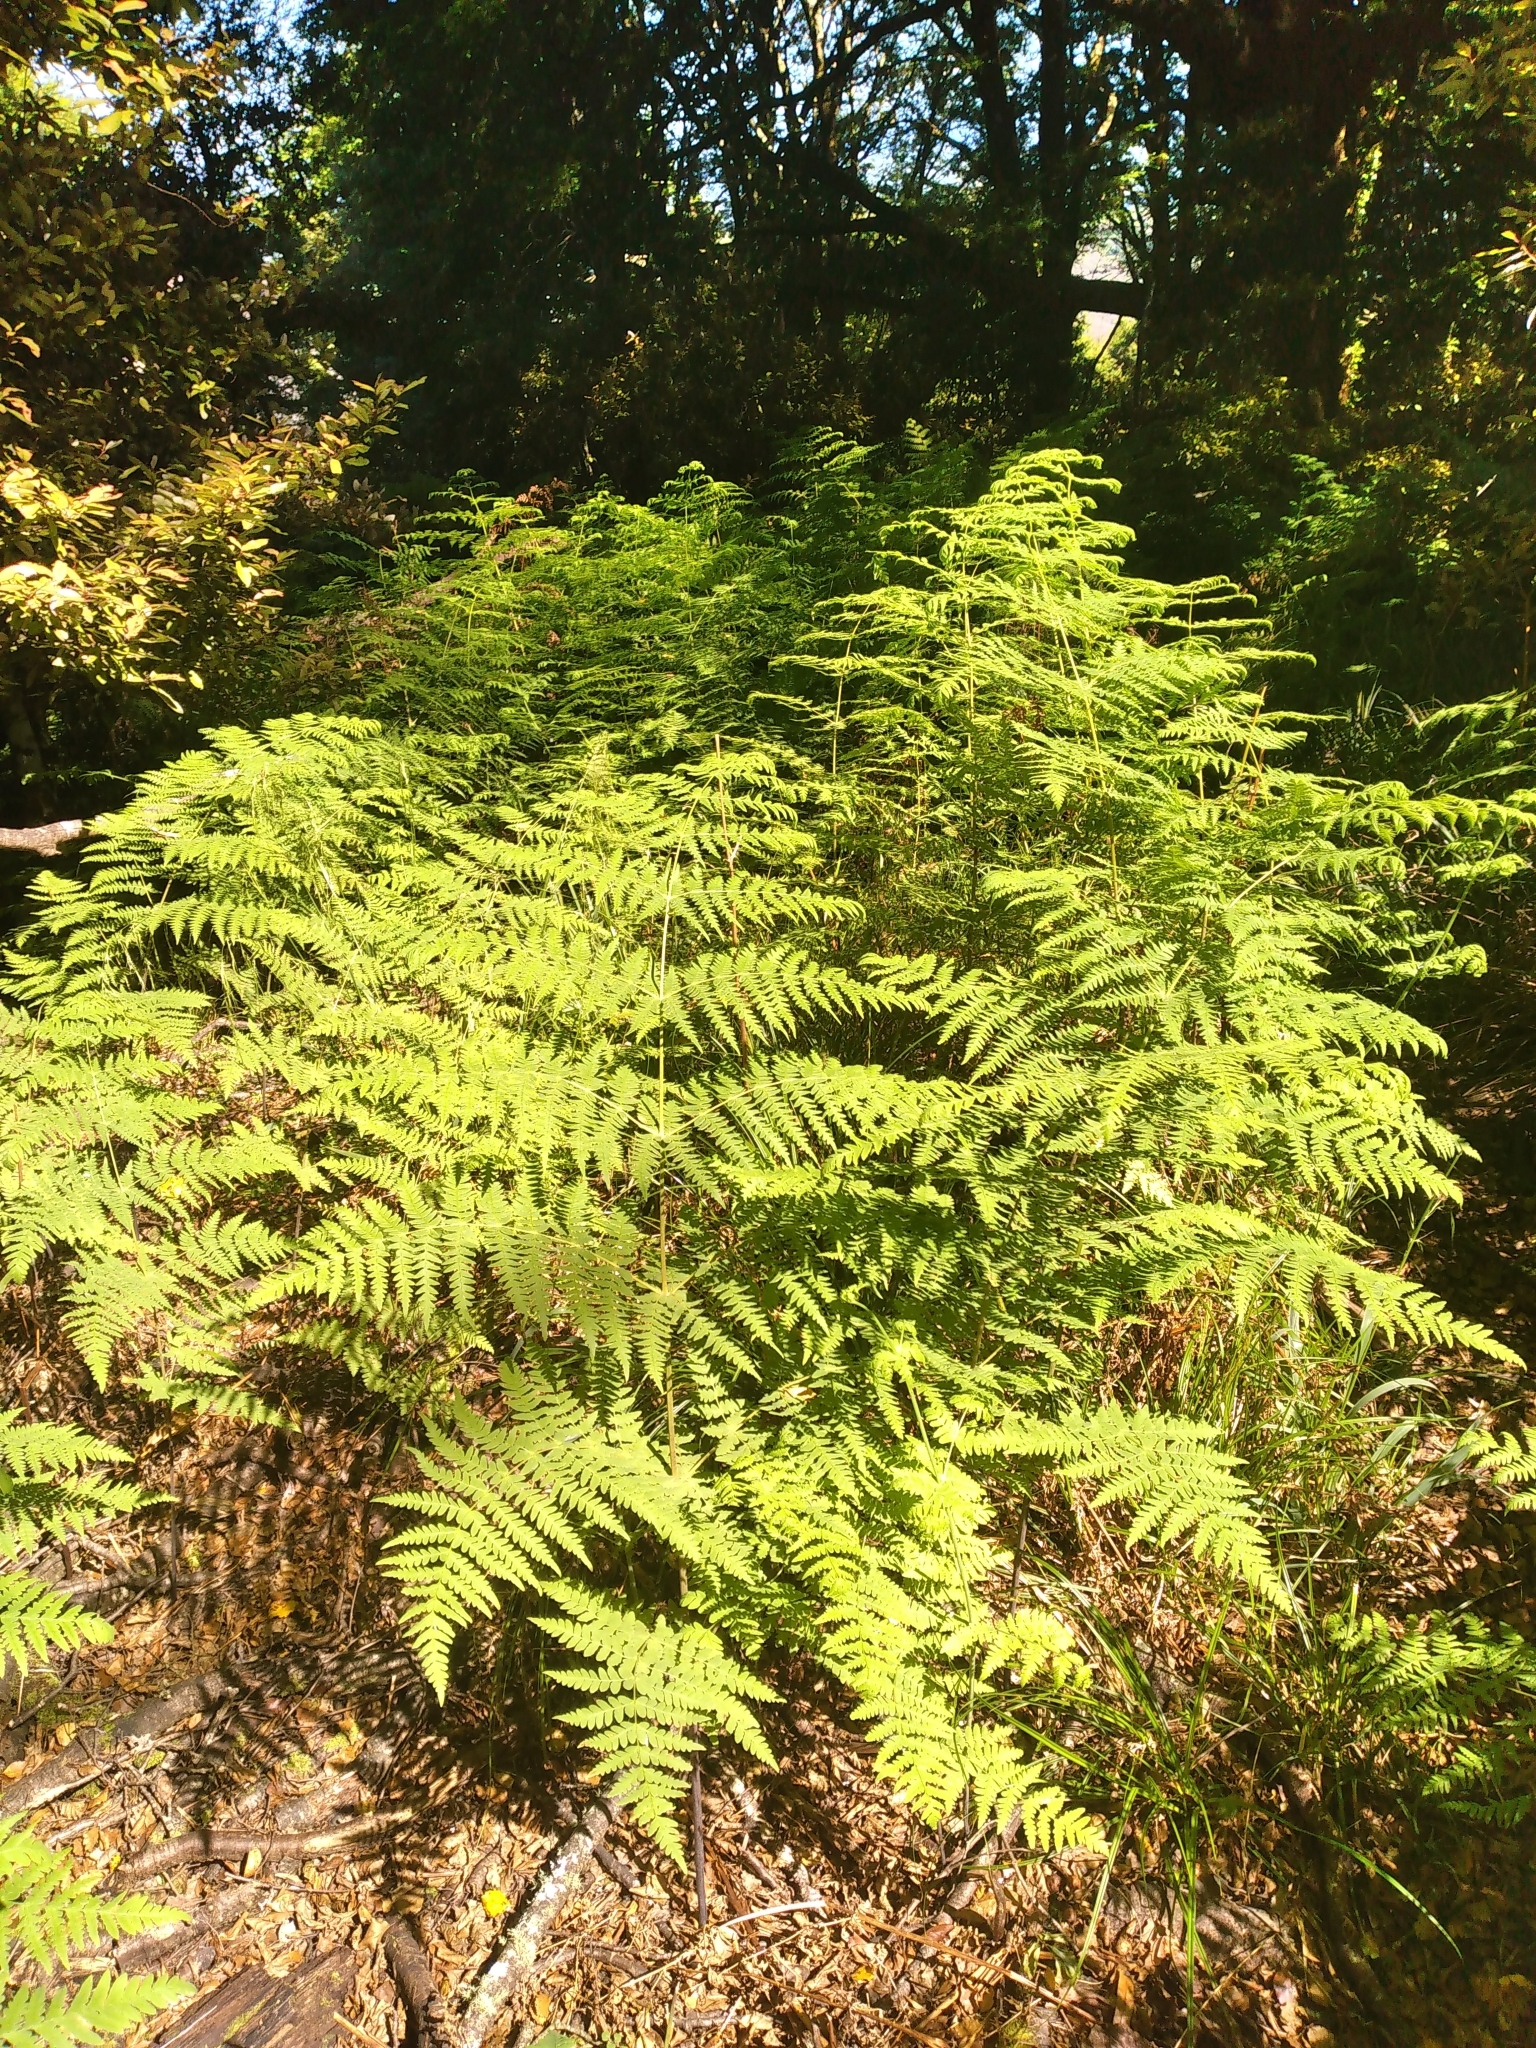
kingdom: Plantae
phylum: Tracheophyta
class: Polypodiopsida
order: Polypodiales
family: Dennstaedtiaceae
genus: Histiopteris
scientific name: Histiopteris incisa
